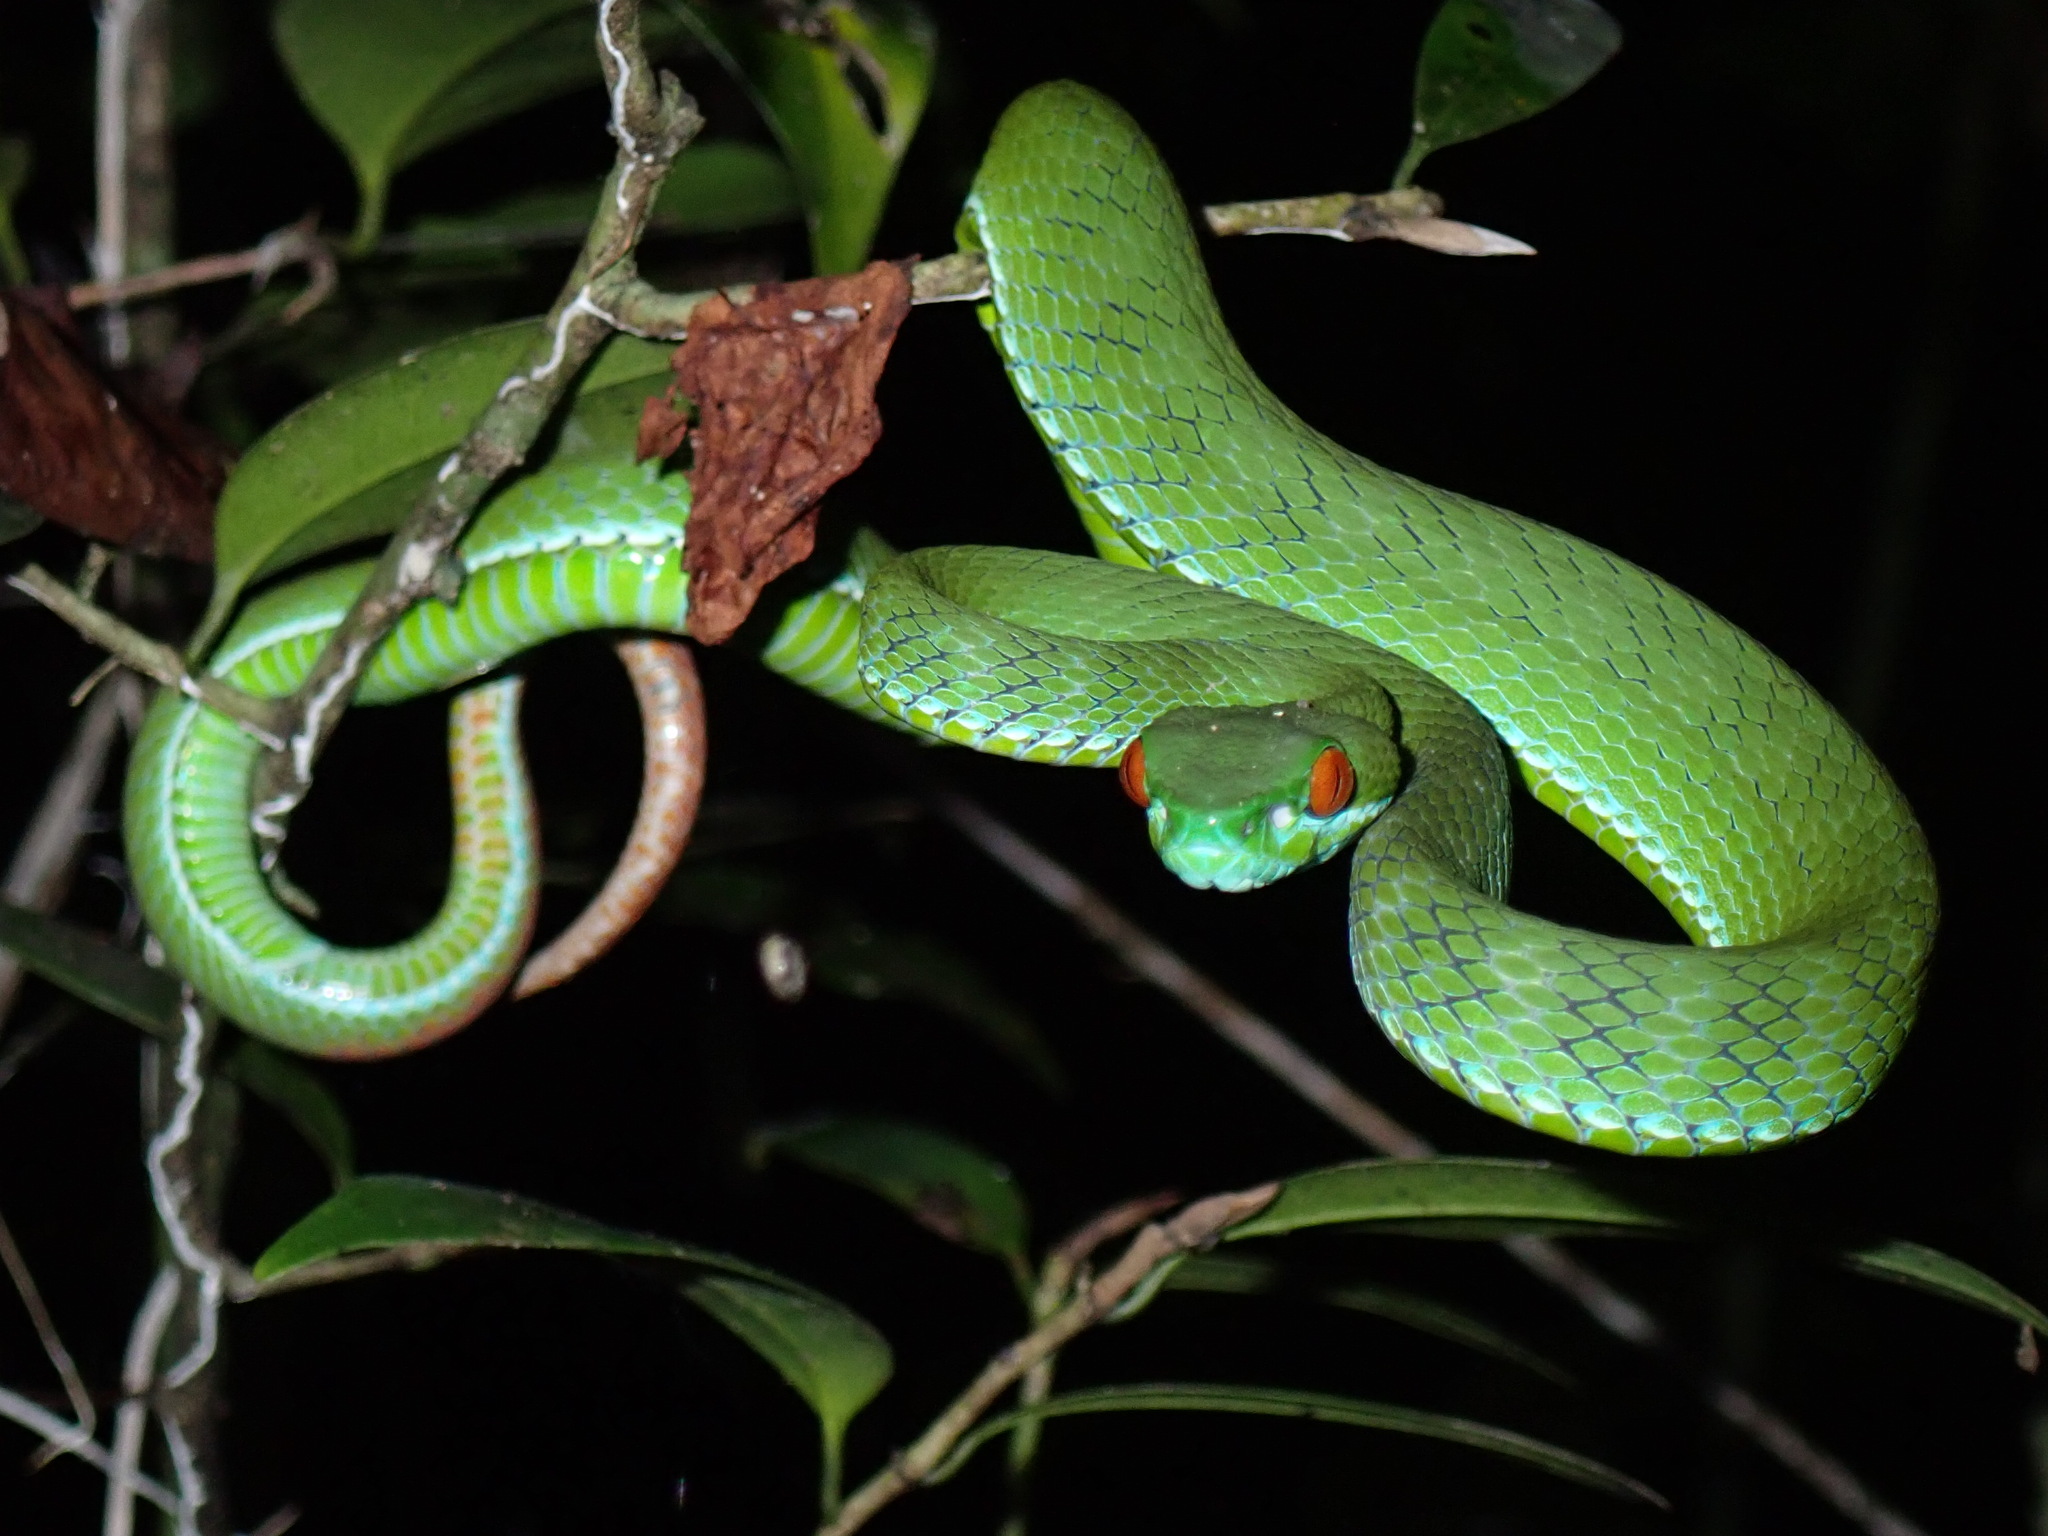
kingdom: Animalia
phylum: Chordata
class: Squamata
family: Viperidae
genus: Craspedocephalus
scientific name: Craspedocephalus rubeus
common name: Ruby-eyed green pitviper
